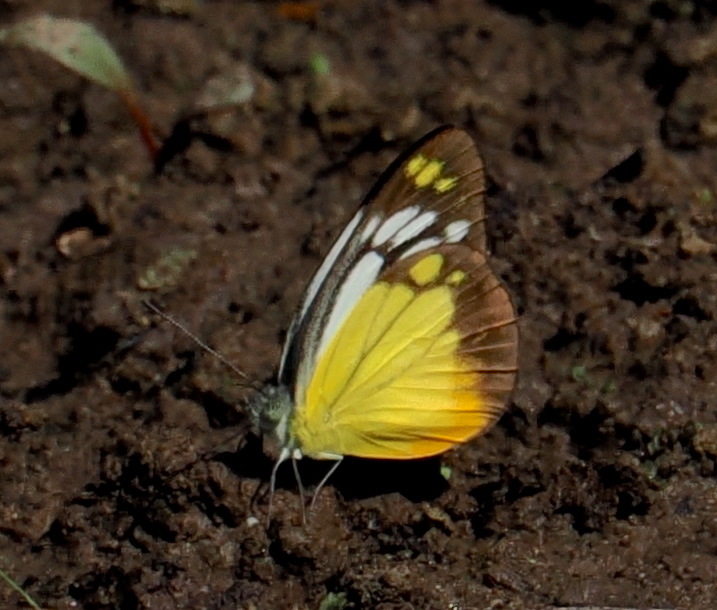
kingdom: Animalia
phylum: Arthropoda
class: Insecta
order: Lepidoptera
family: Pieridae
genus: Cepora
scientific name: Cepora iudith
